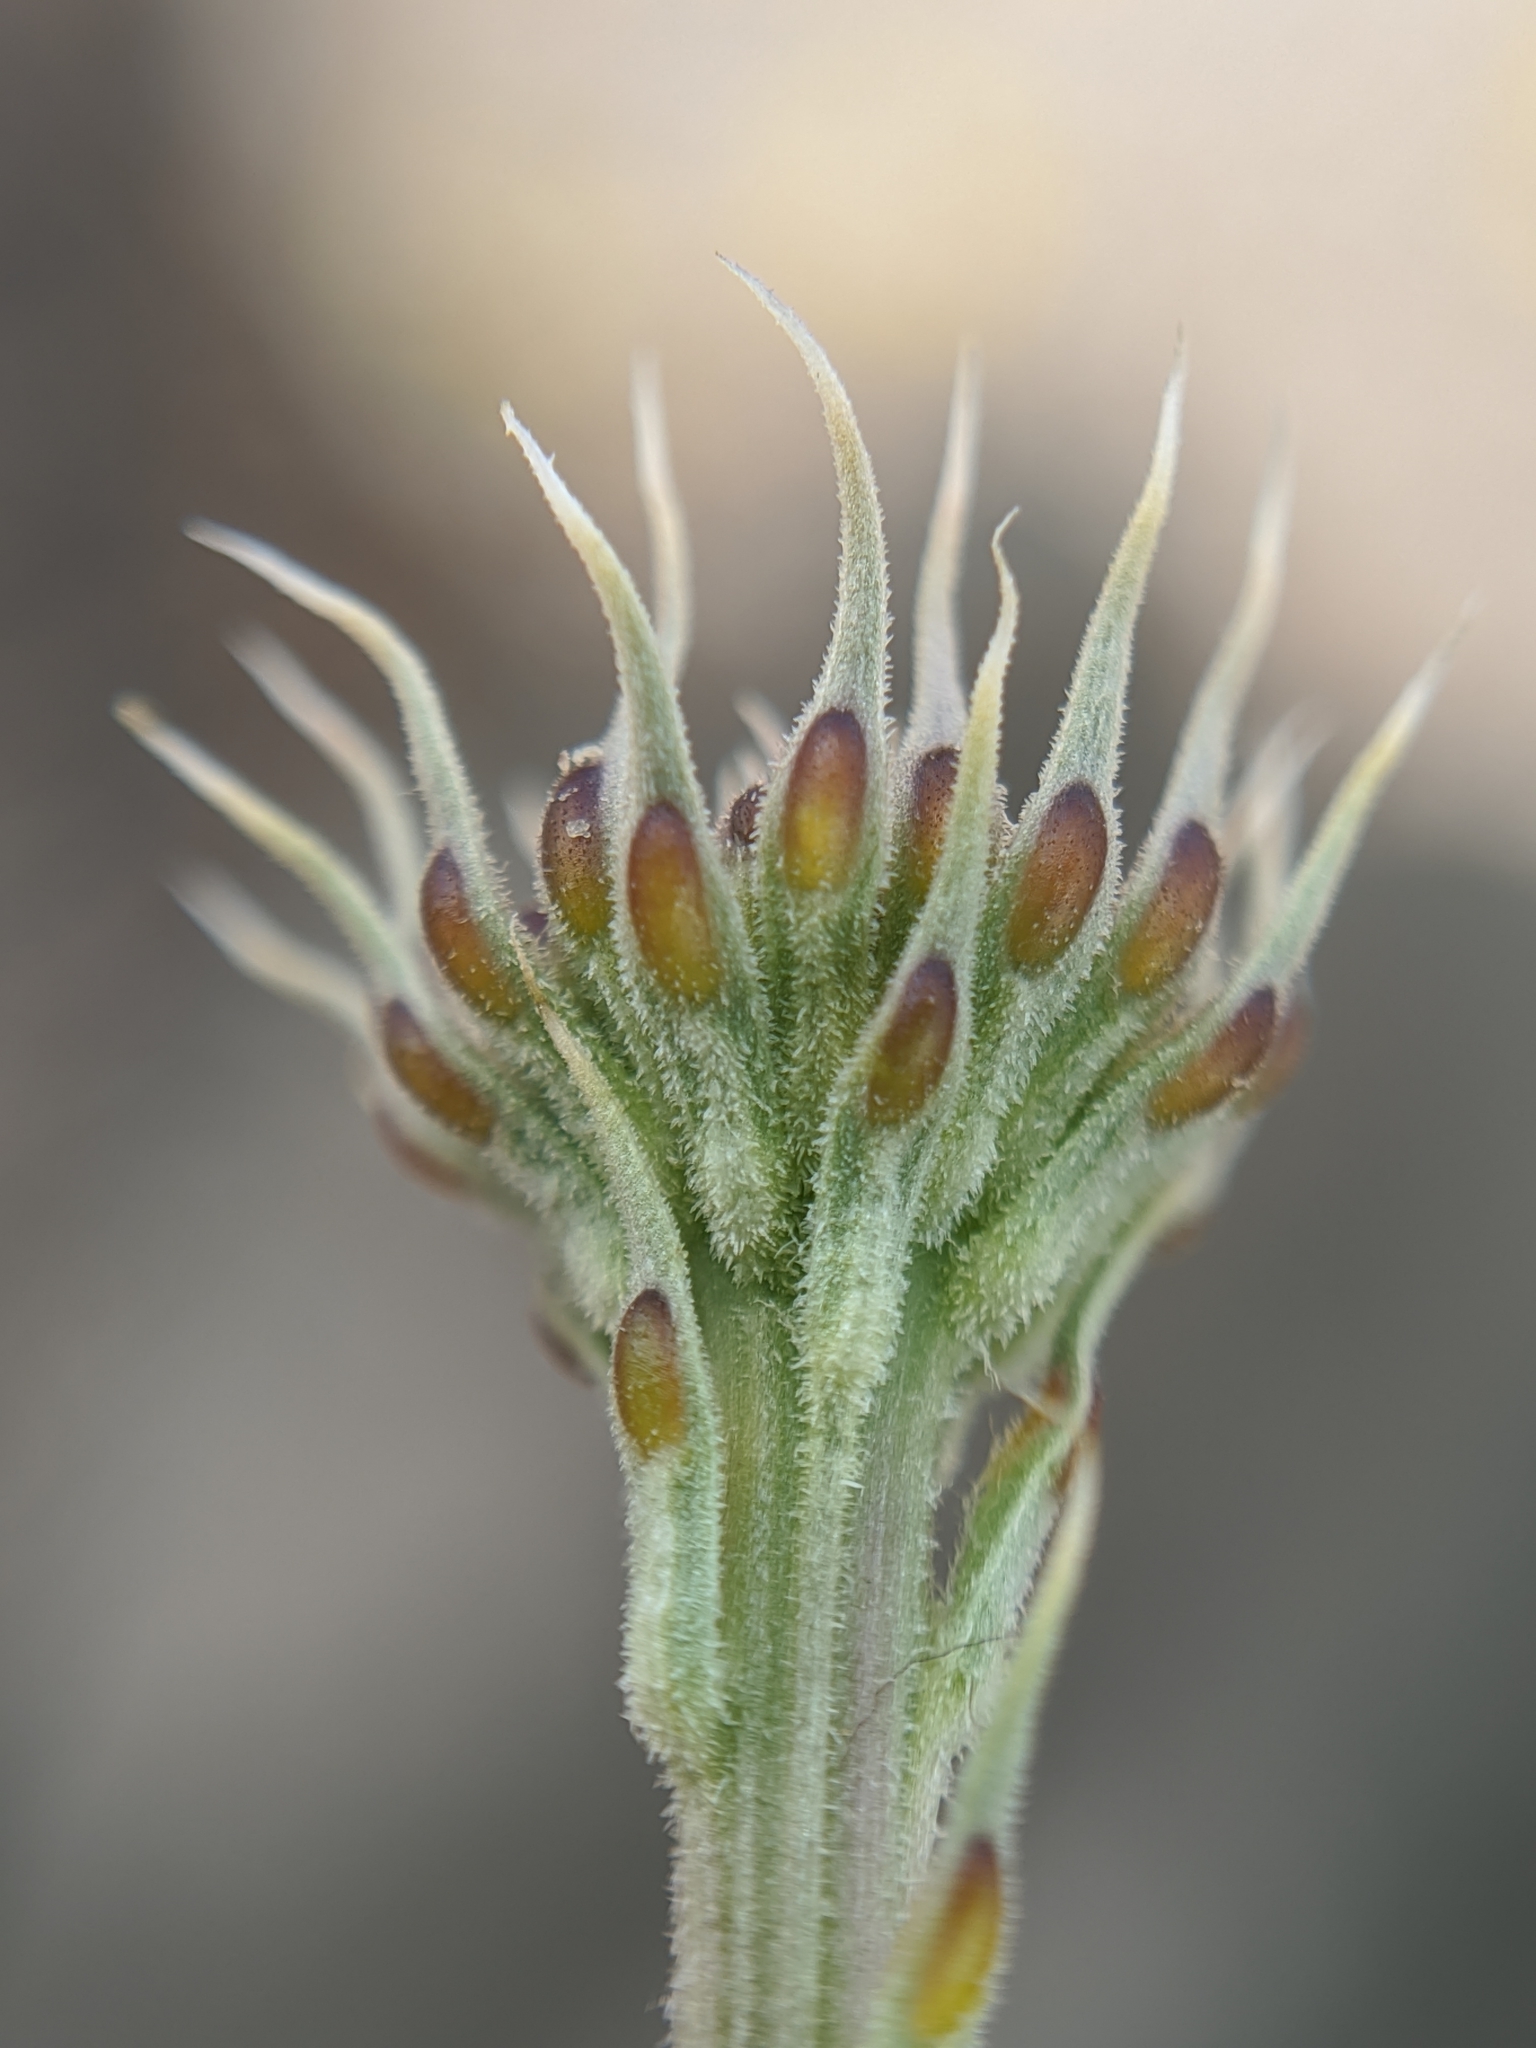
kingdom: Plantae
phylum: Tracheophyta
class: Magnoliopsida
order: Asterales
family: Asteraceae
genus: Adenophyllum
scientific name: Adenophyllum porophylloides
